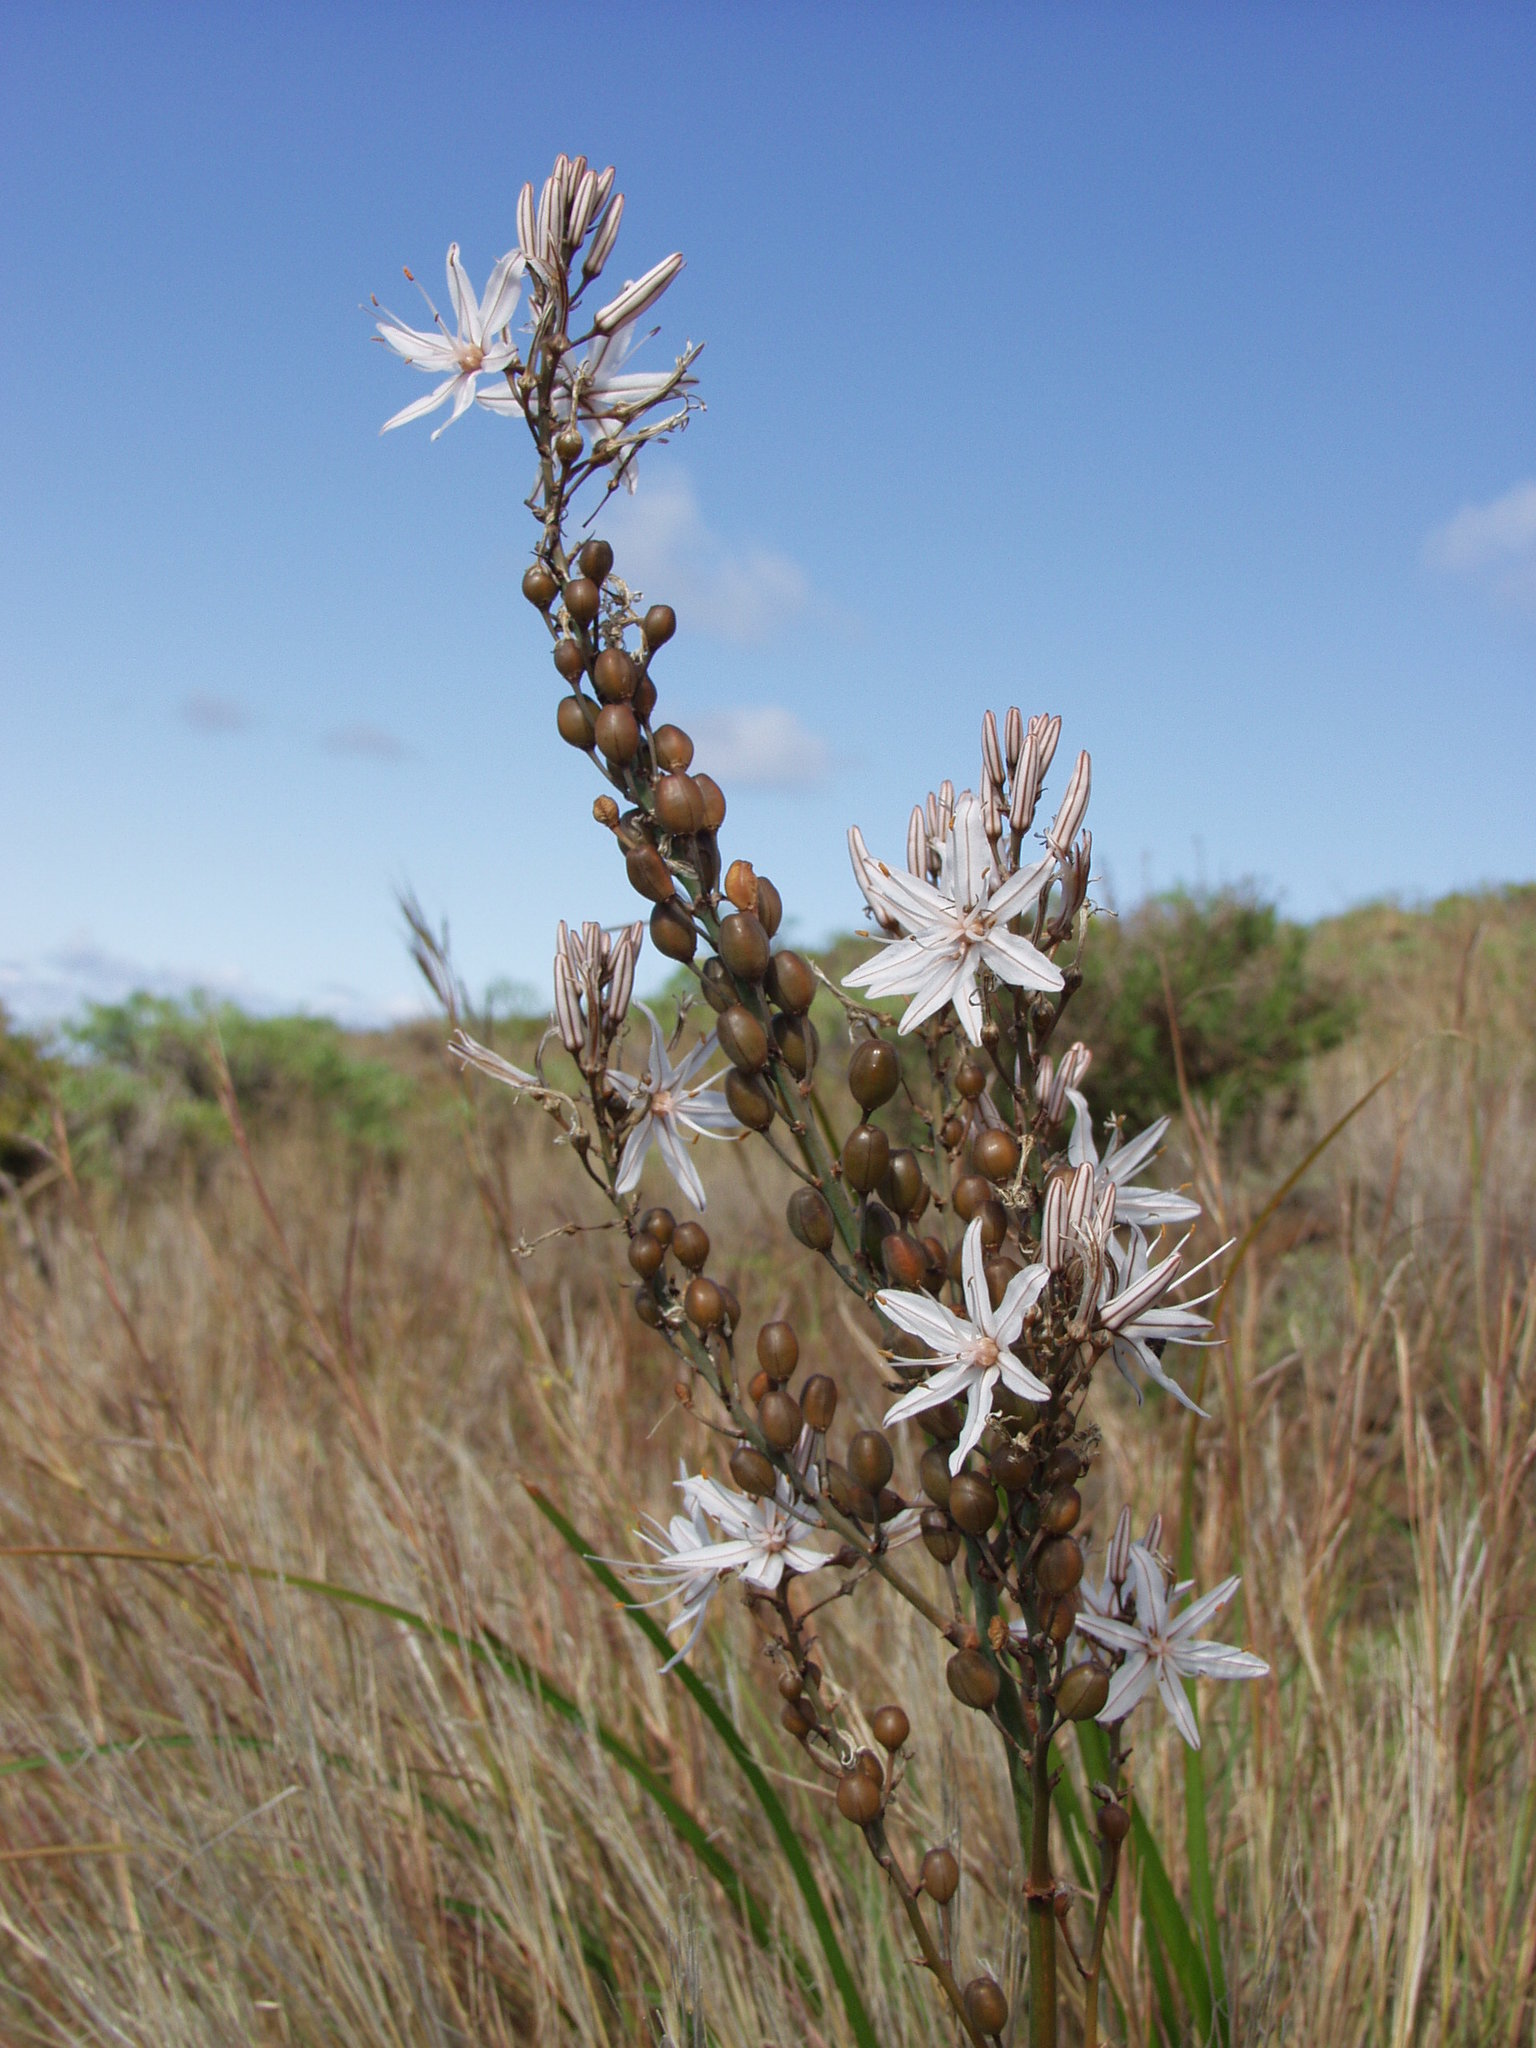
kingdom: Plantae
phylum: Tracheophyta
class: Liliopsida
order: Asparagales
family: Asphodelaceae
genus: Asphodelus
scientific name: Asphodelus ramosus
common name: Silverrod
